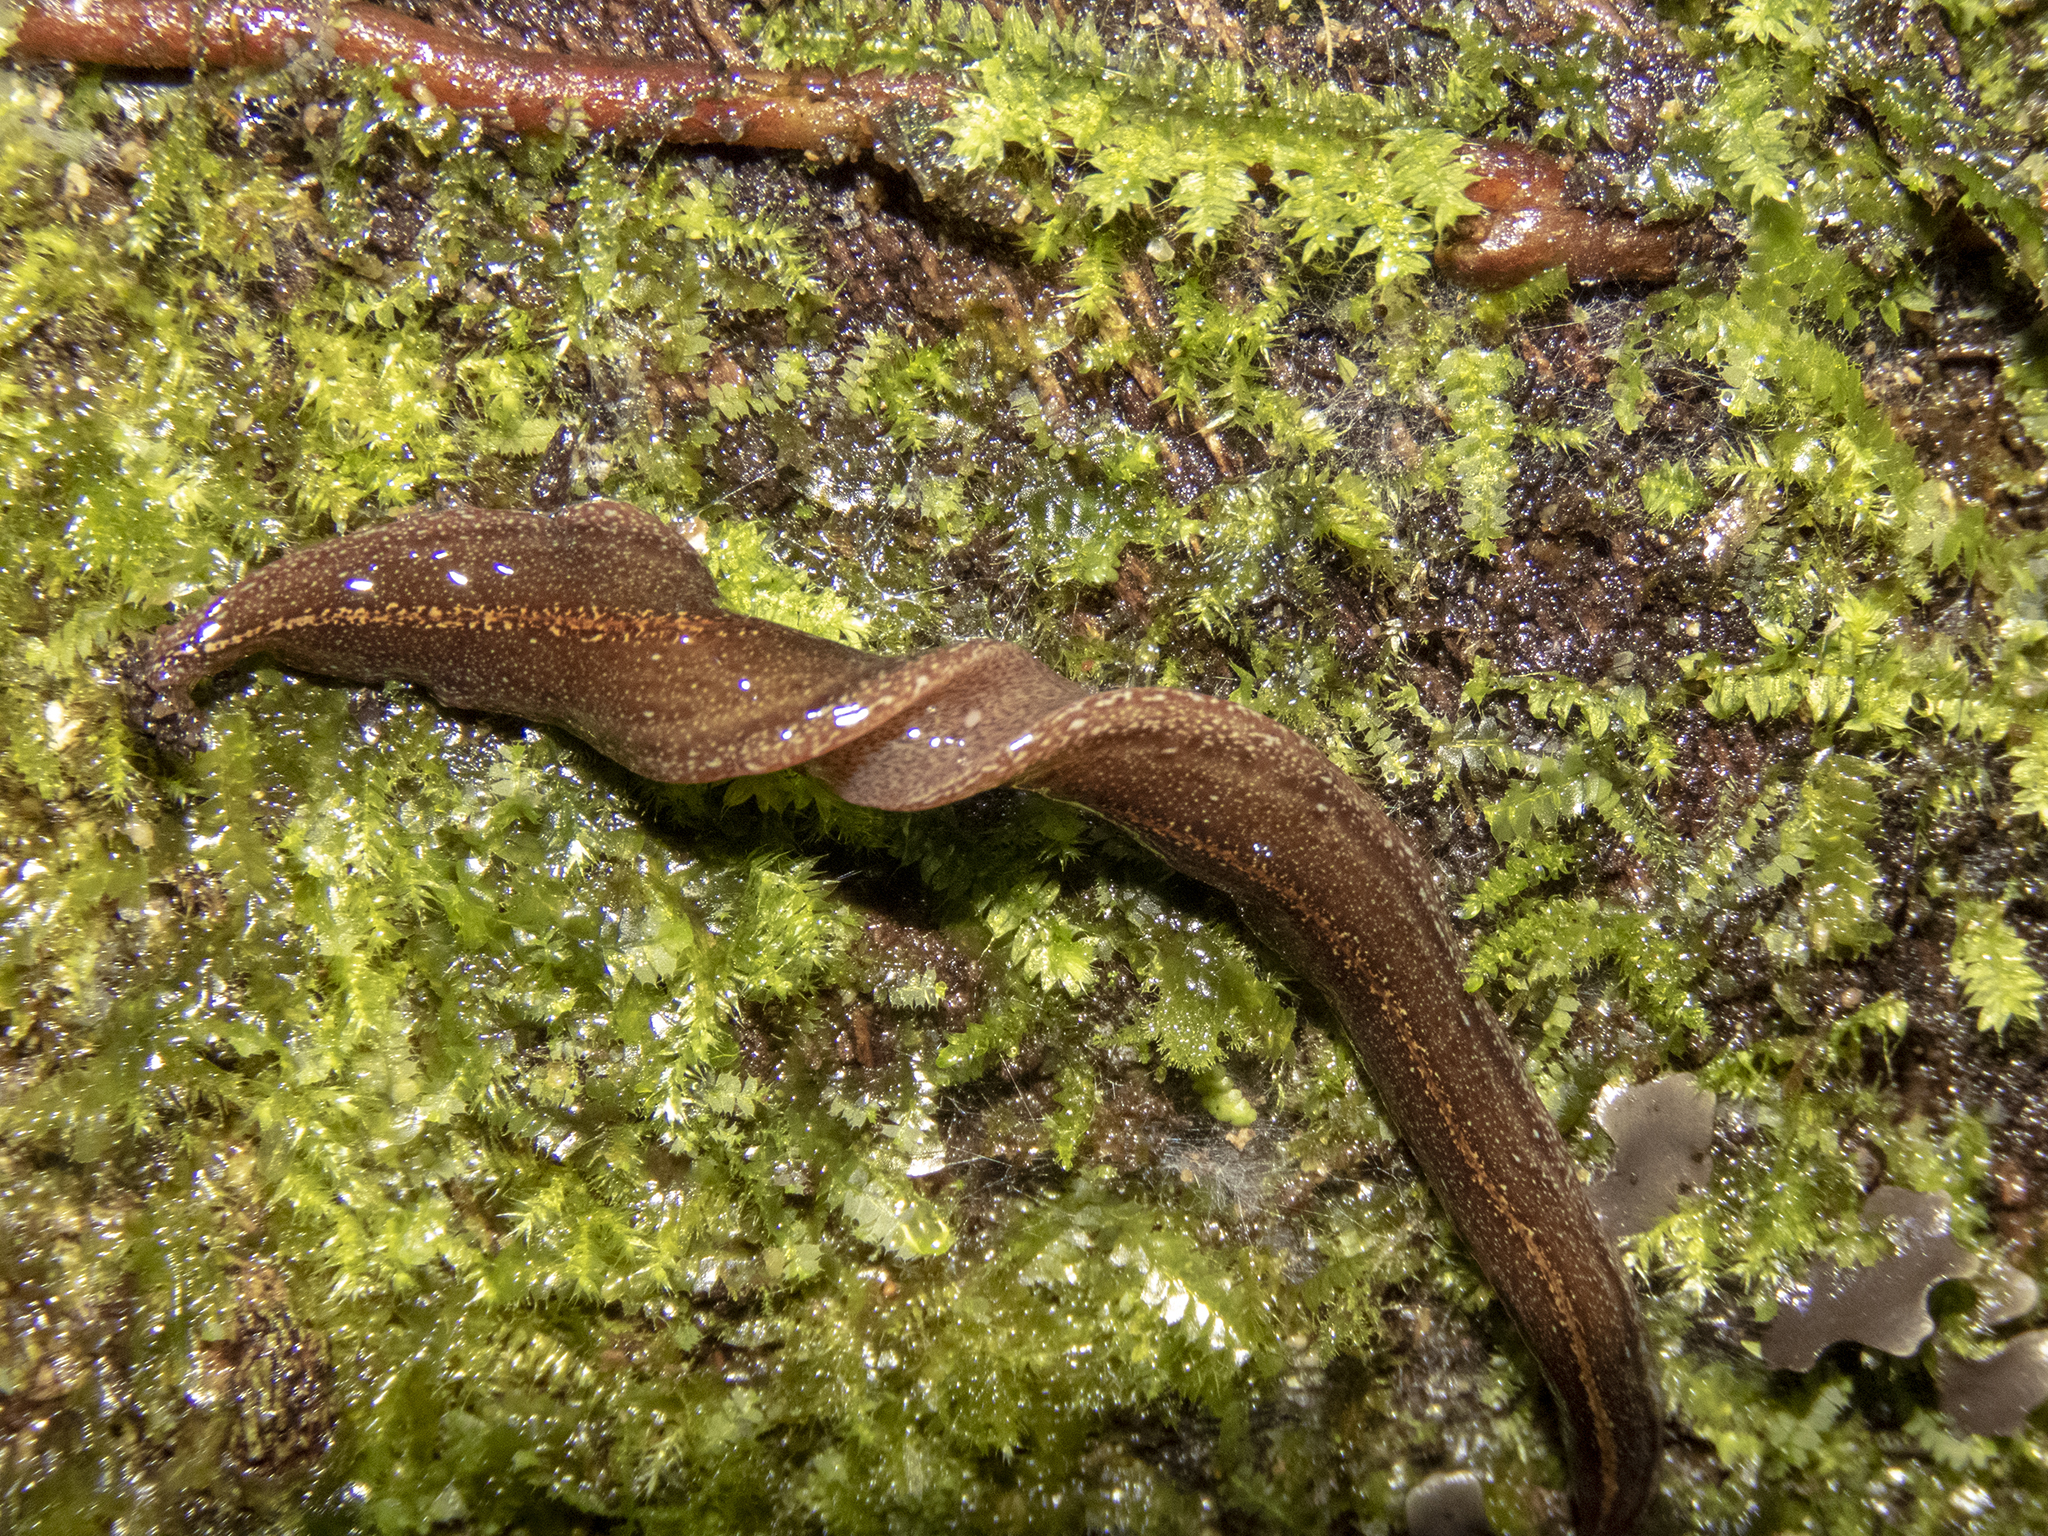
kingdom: Animalia
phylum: Platyhelminthes
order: Tricladida
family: Geoplanidae
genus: Australopacifica
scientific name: Australopacifica
